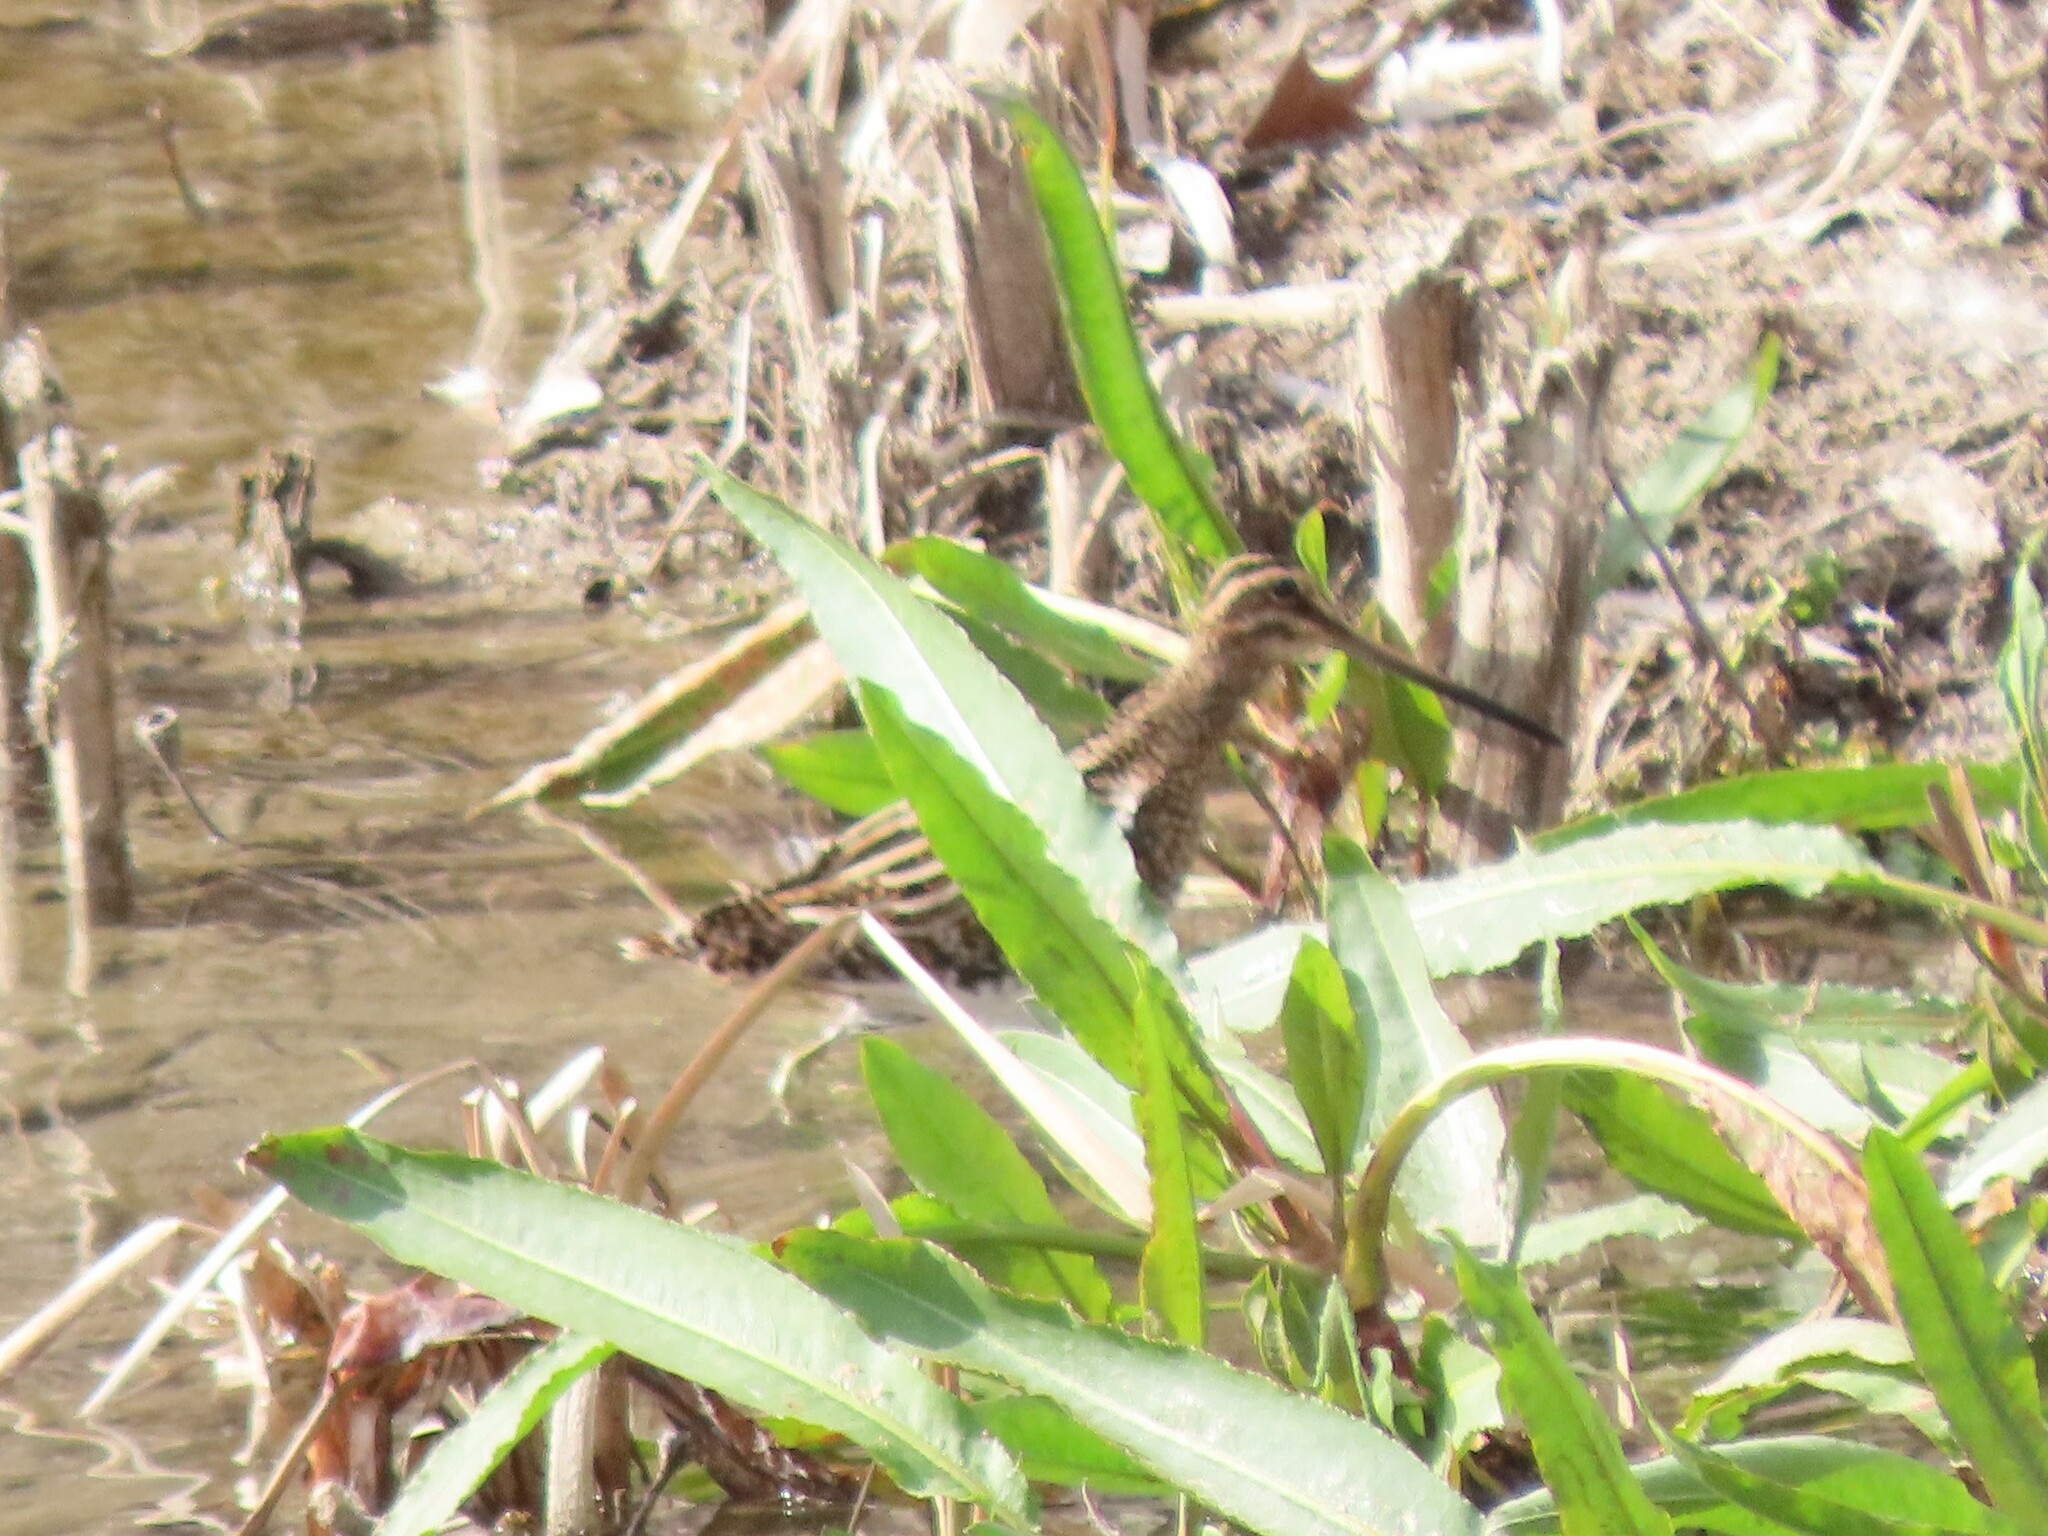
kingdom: Animalia
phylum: Chordata
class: Aves
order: Charadriiformes
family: Scolopacidae
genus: Gallinago
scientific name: Gallinago gallinago
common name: Common snipe
